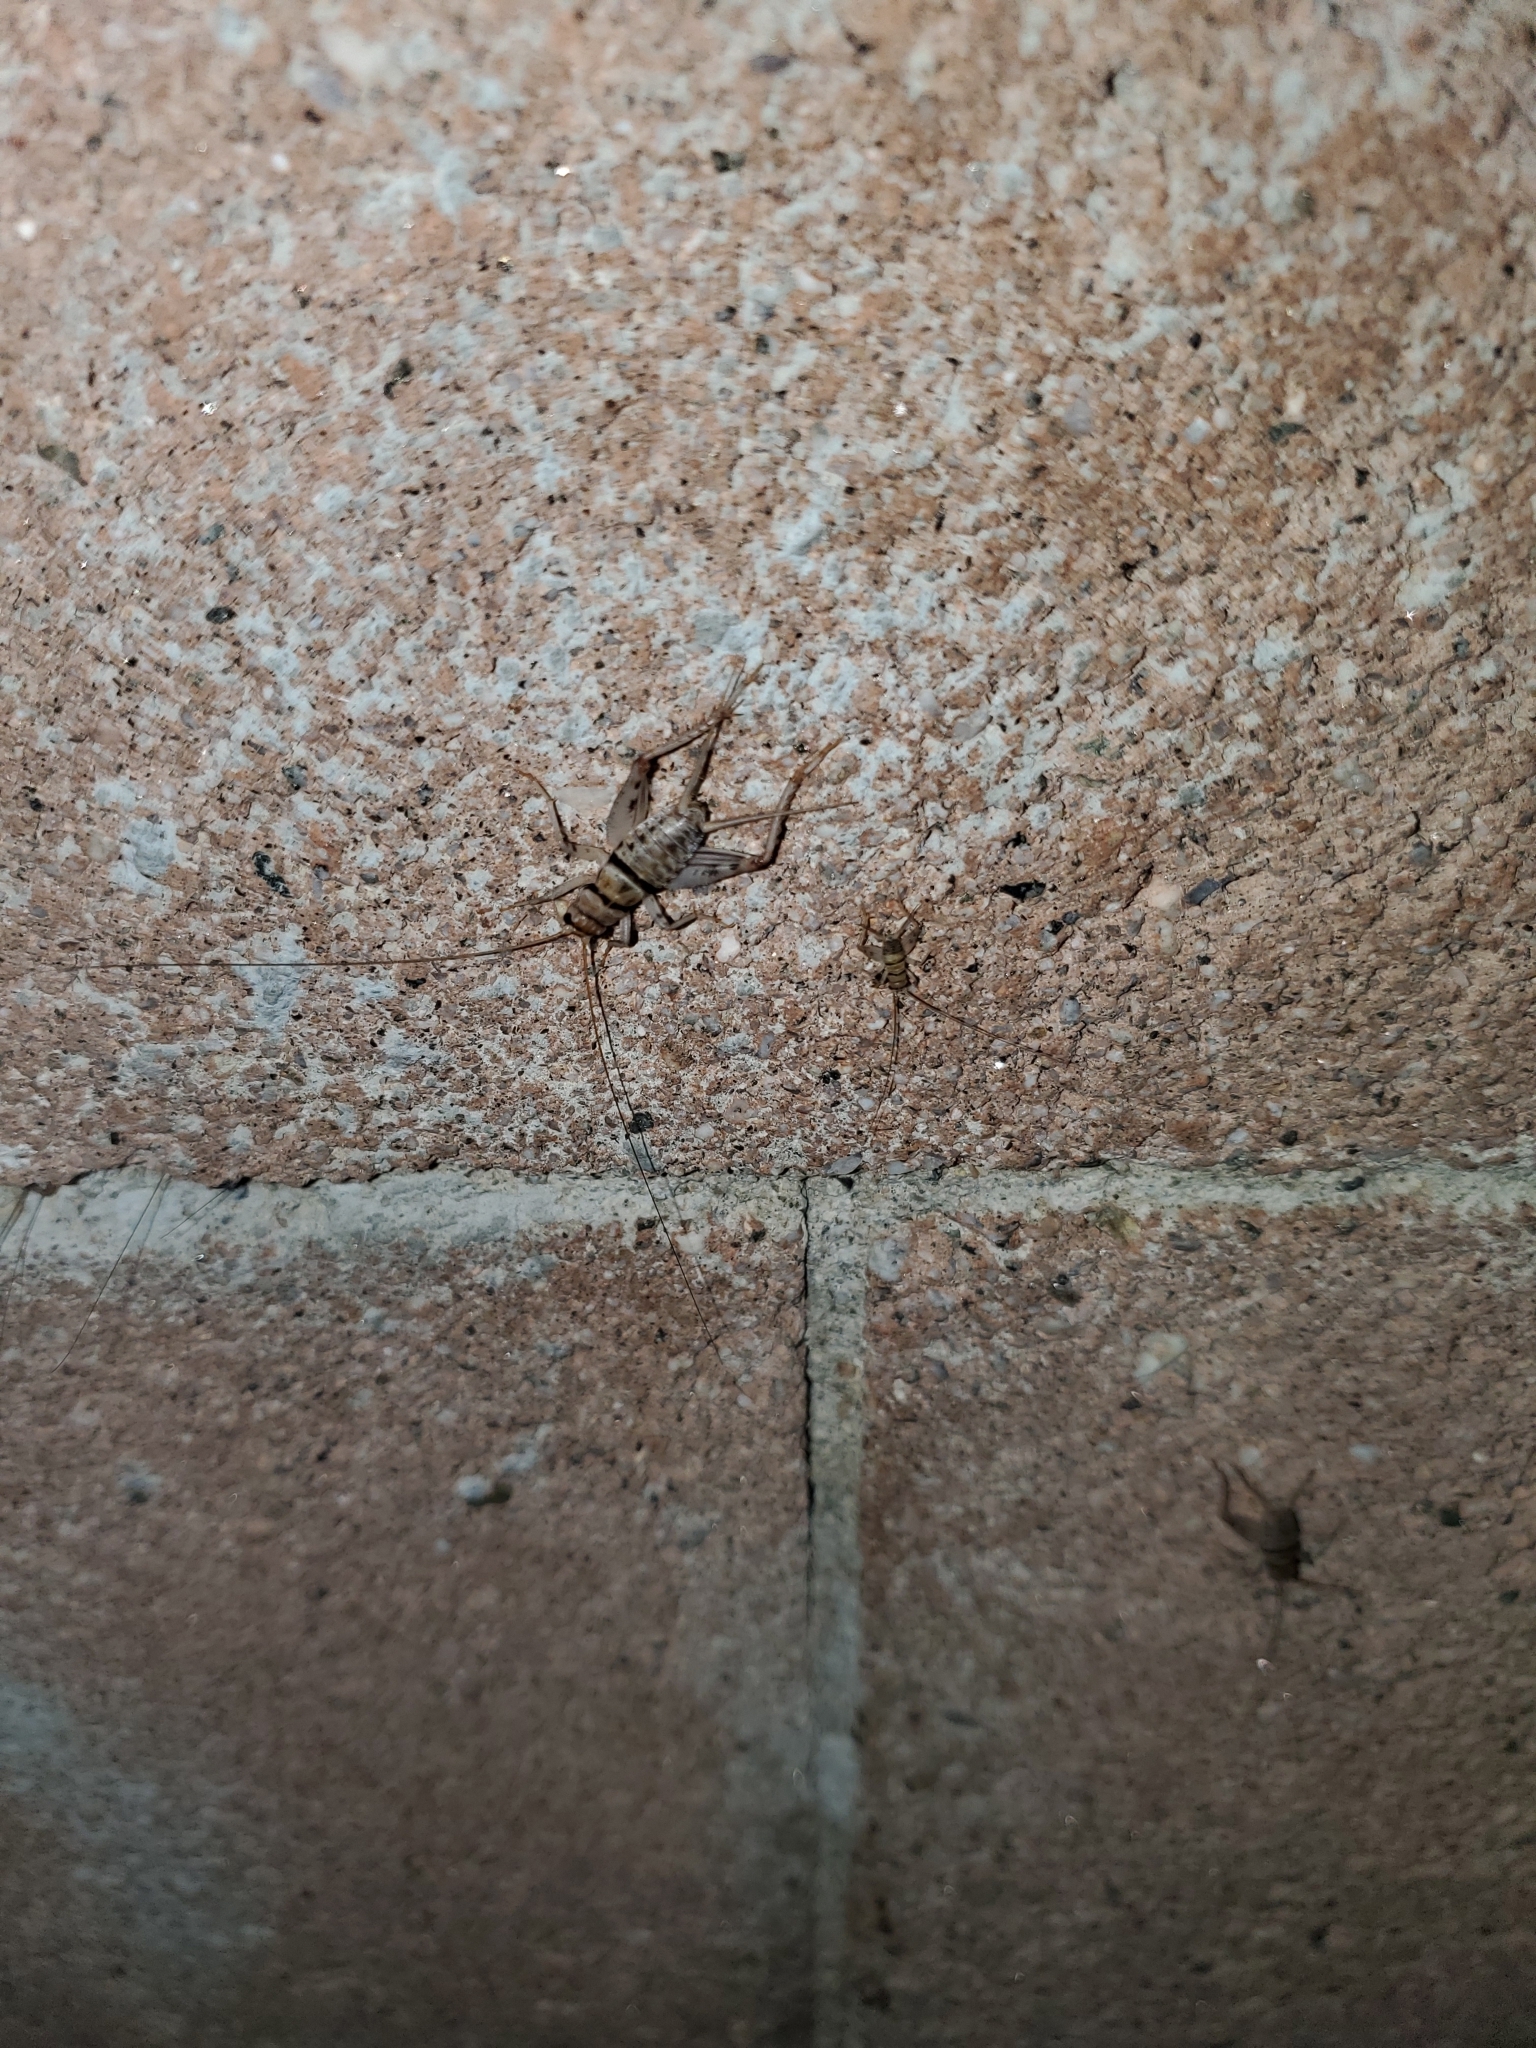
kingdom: Animalia
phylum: Arthropoda
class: Insecta
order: Orthoptera
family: Gryllidae
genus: Gryllodes
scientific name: Gryllodes sigillatus
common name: Tropical house cricket
